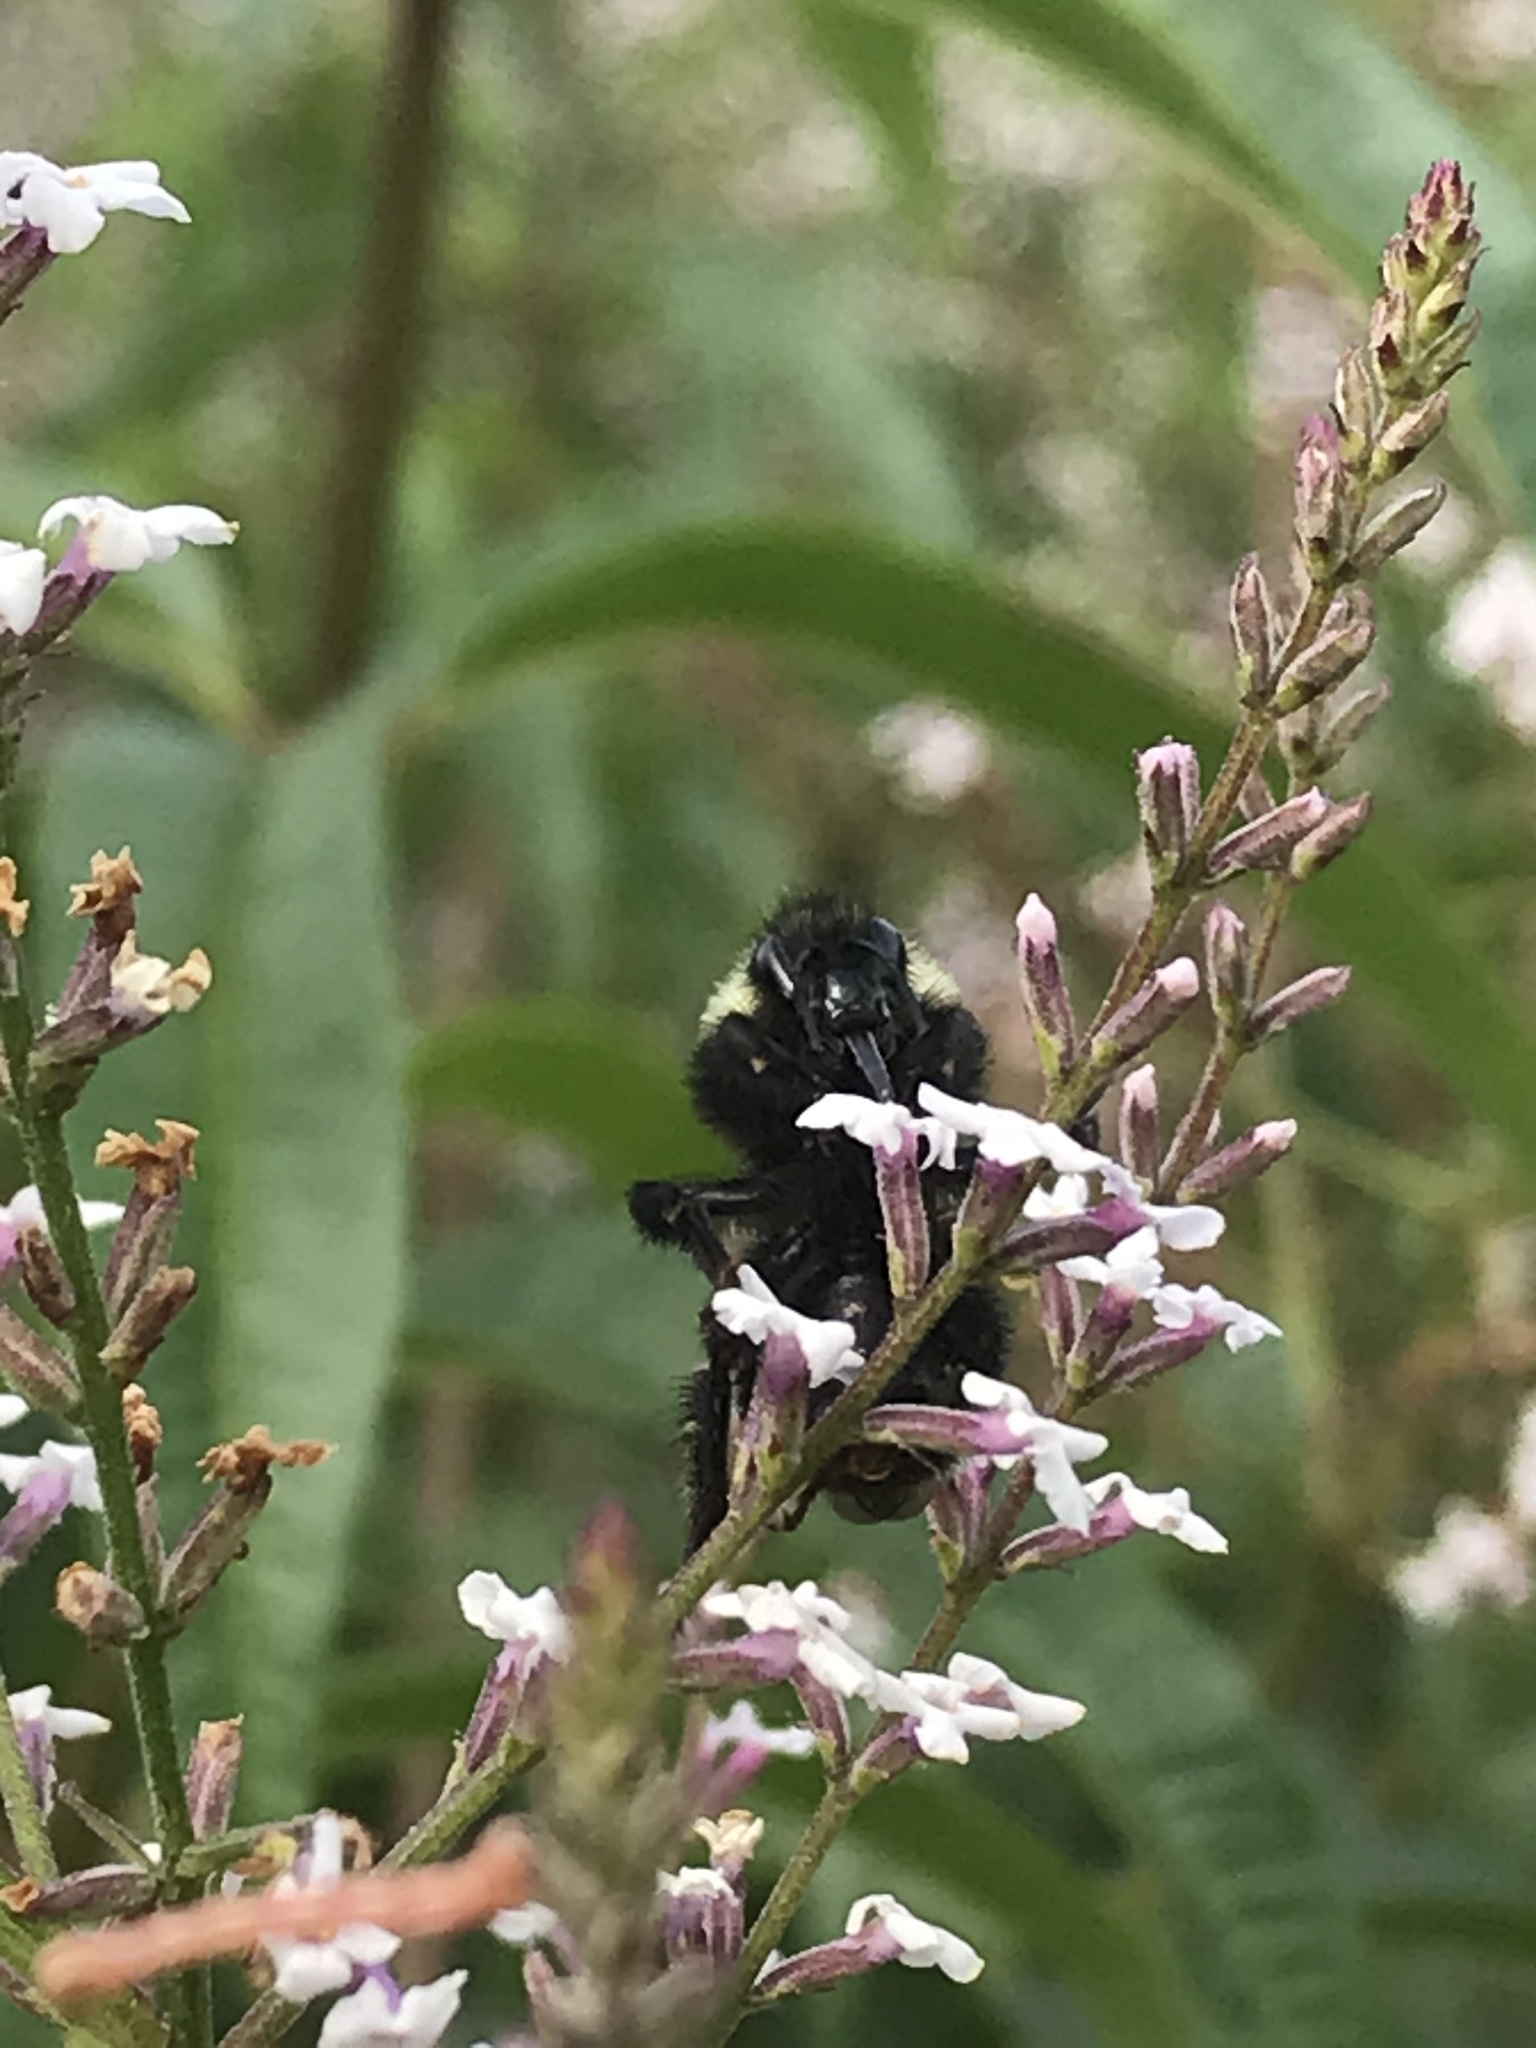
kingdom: Animalia
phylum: Arthropoda
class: Insecta
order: Hymenoptera
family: Apidae
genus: Bombus
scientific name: Bombus californicus
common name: California bumble bee
